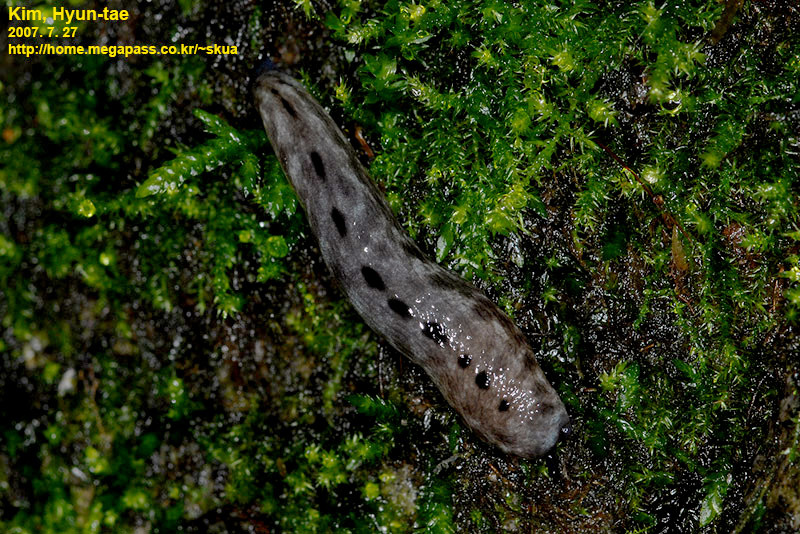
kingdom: Animalia
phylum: Mollusca
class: Gastropoda
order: Stylommatophora
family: Philomycidae
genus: Meghimatium
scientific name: Meghimatium fruhstorferi
